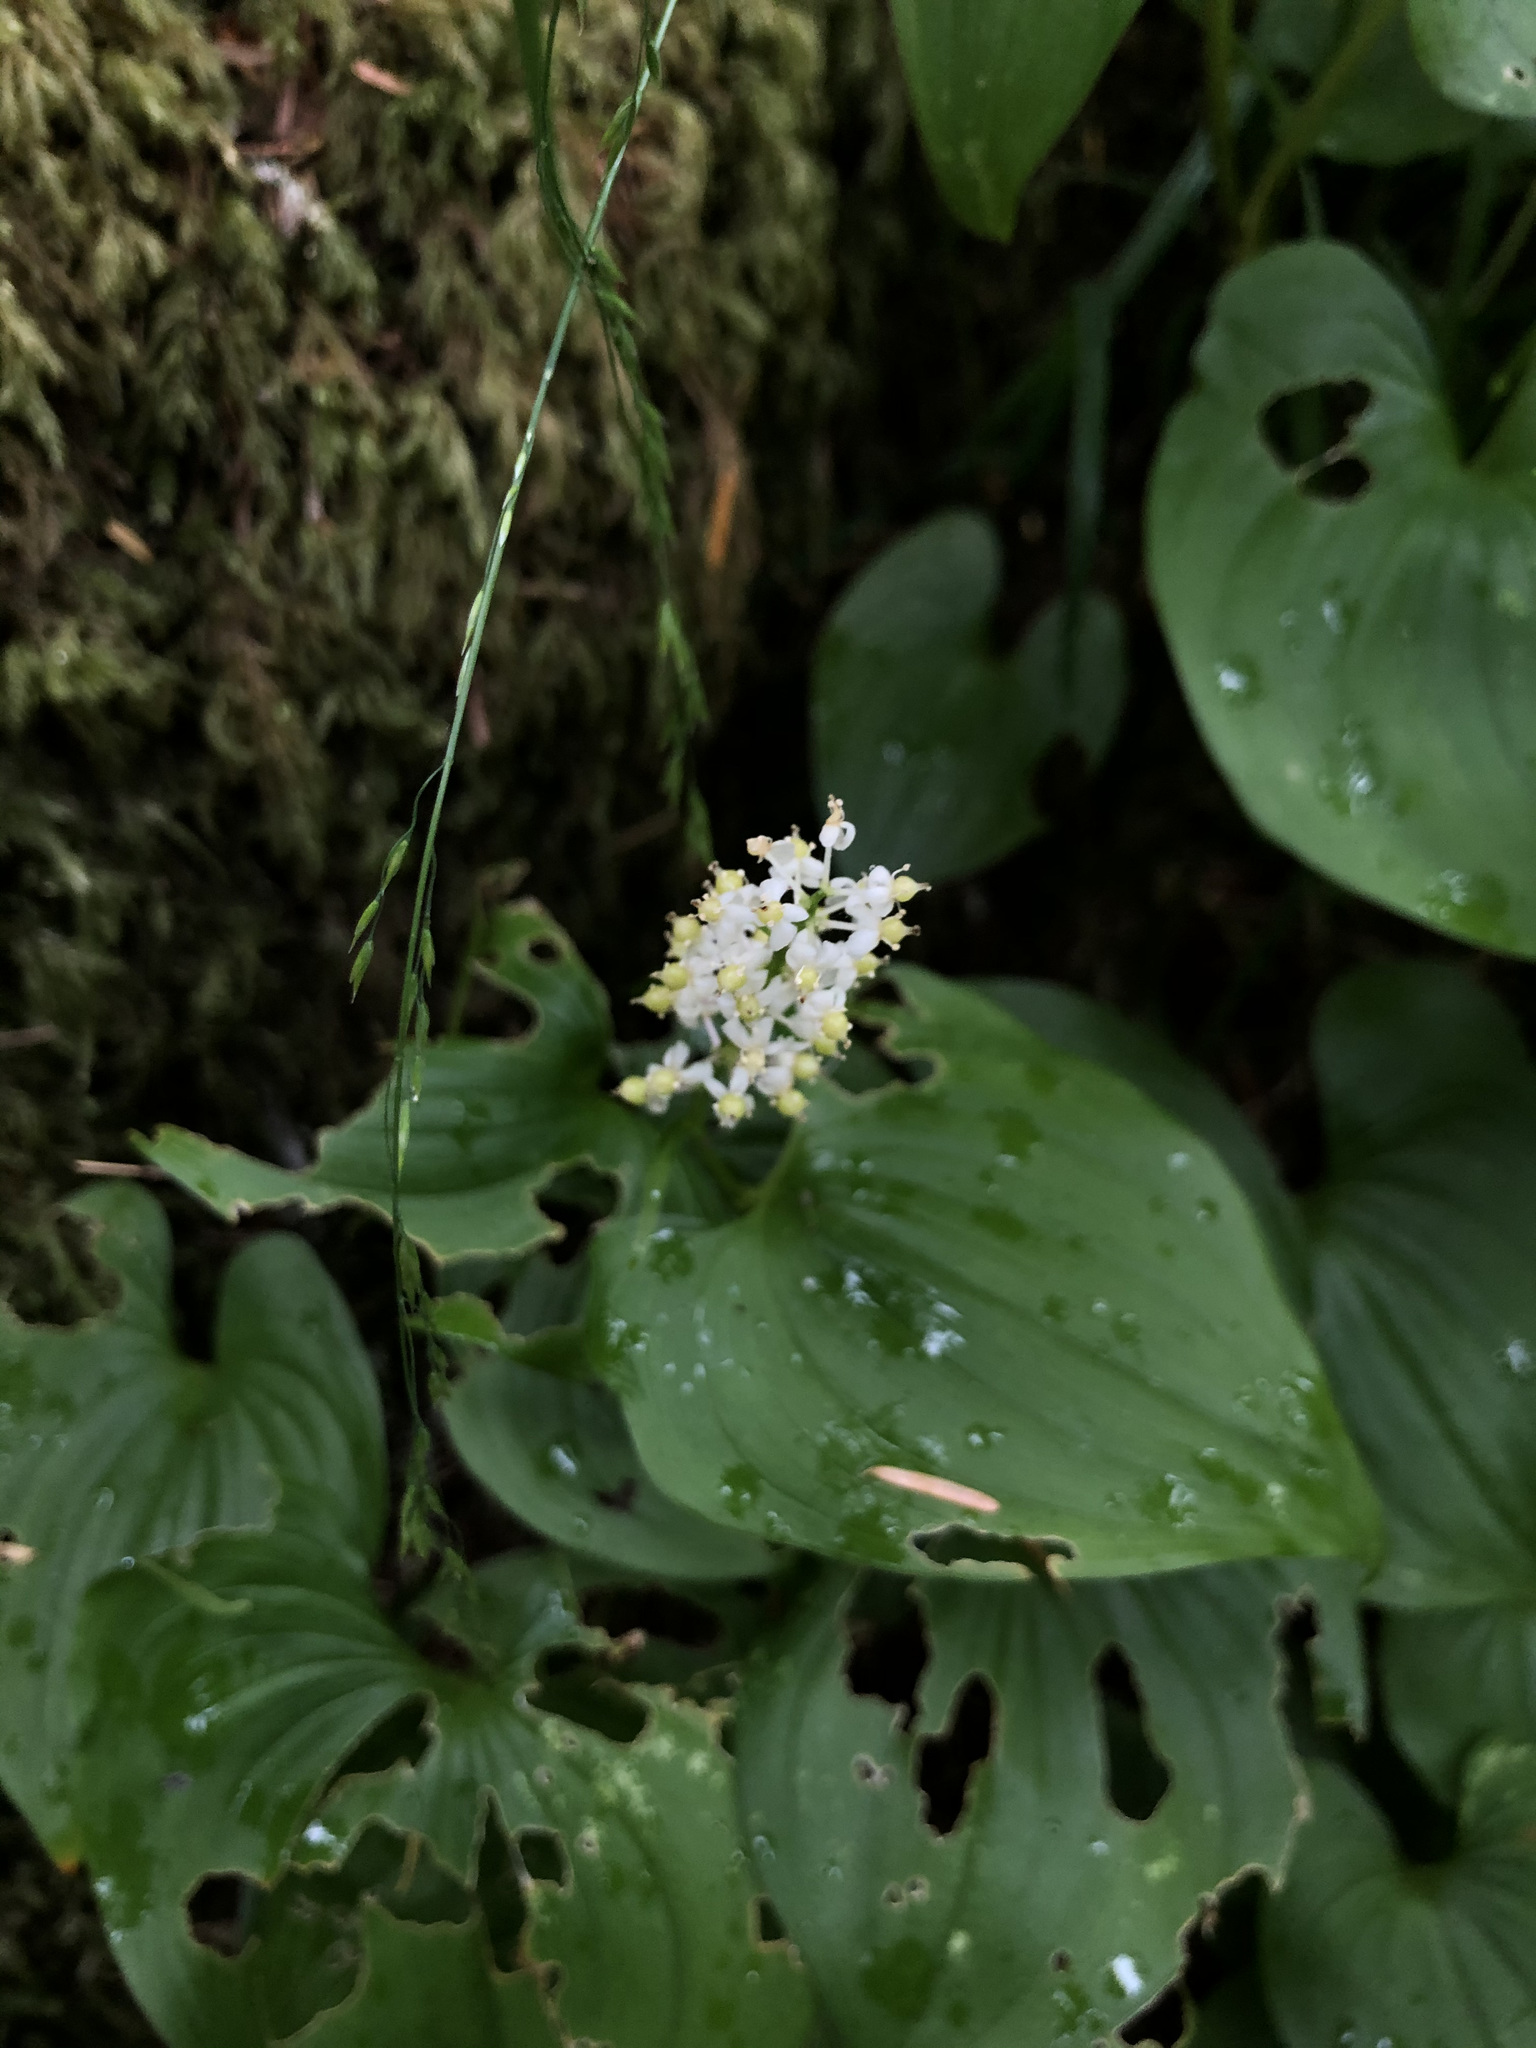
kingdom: Plantae
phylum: Tracheophyta
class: Liliopsida
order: Asparagales
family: Asparagaceae
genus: Maianthemum
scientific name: Maianthemum dilatatum
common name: False lily-of-the-valley
